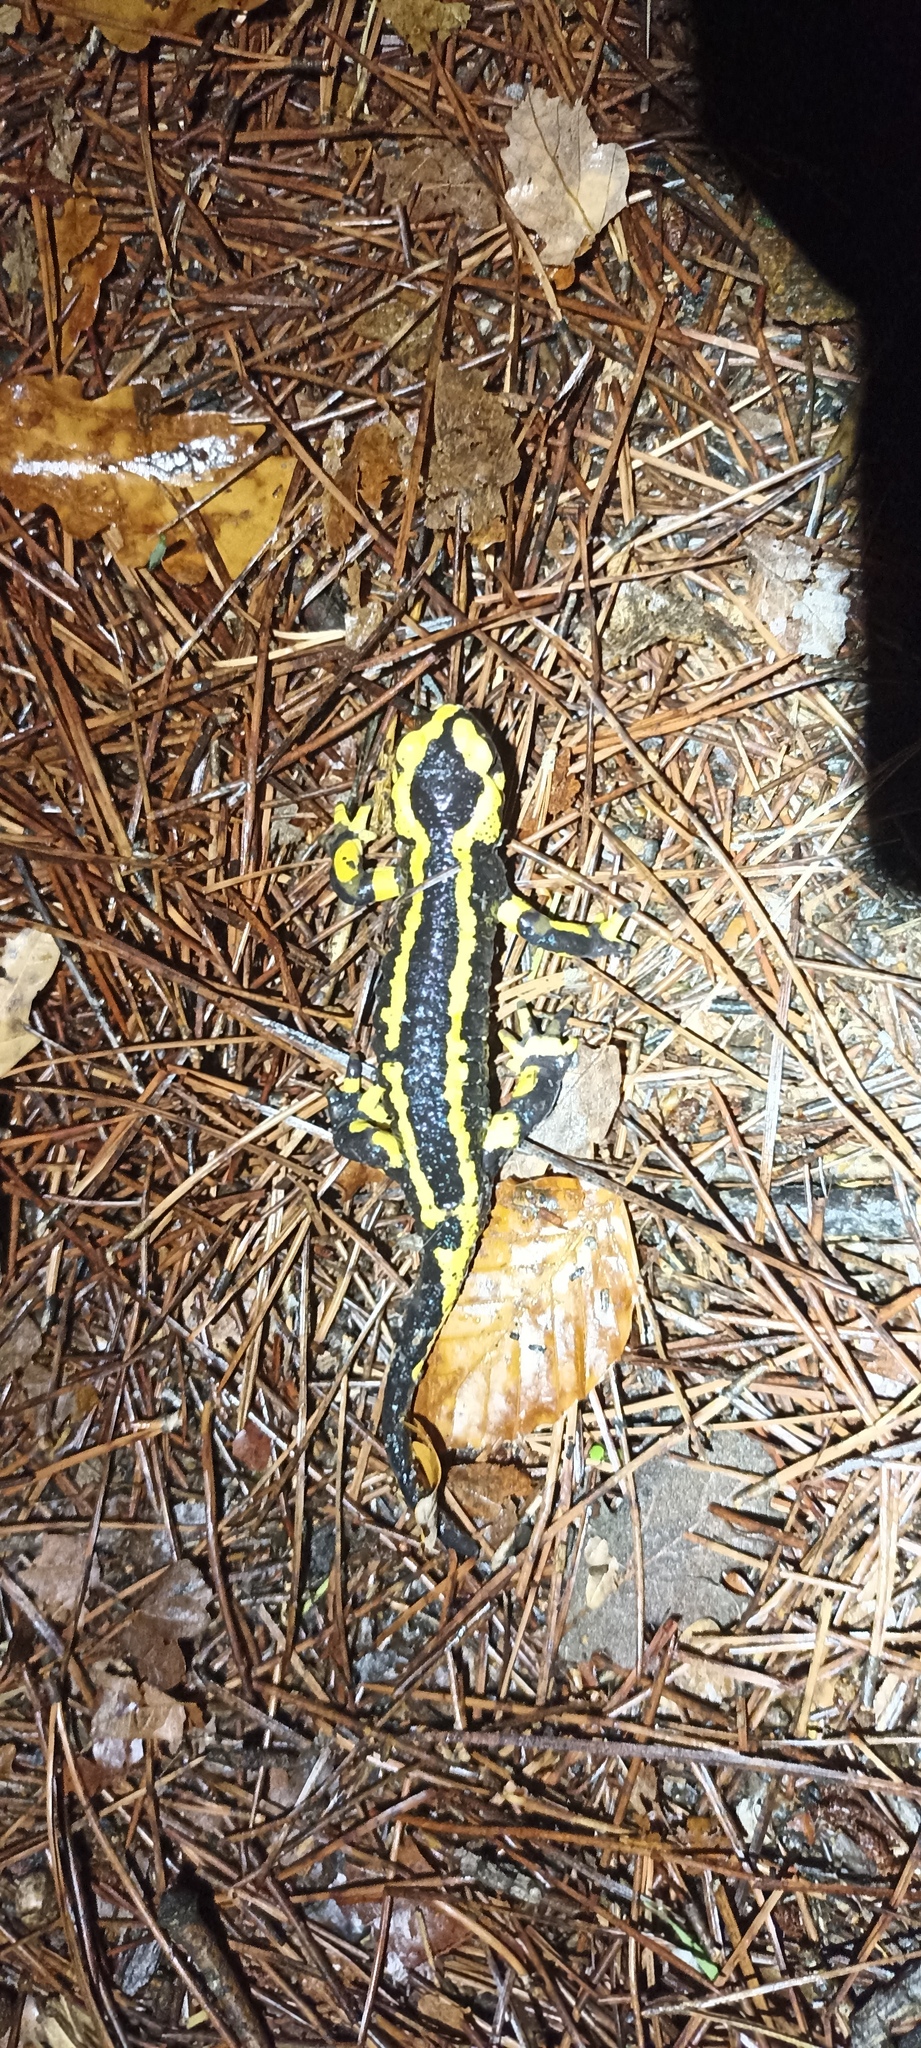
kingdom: Animalia
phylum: Chordata
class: Amphibia
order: Caudata
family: Salamandridae
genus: Salamandra
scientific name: Salamandra salamandra
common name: Fire salamander
